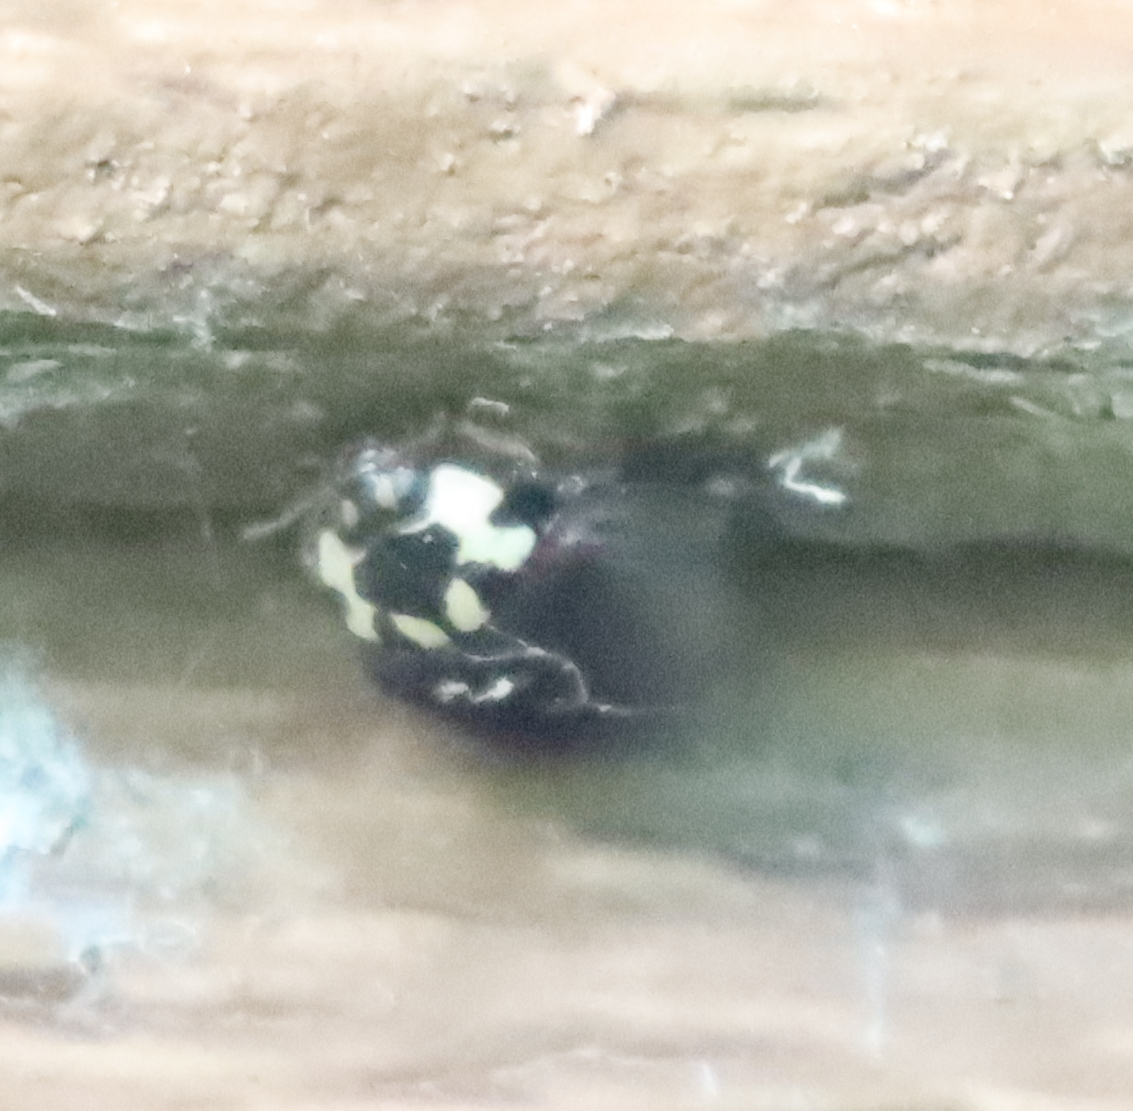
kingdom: Animalia
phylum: Arthropoda
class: Insecta
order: Coleoptera
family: Coccinellidae
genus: Anatis
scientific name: Anatis labiculata
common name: Fifteen-spotted lady beetle
